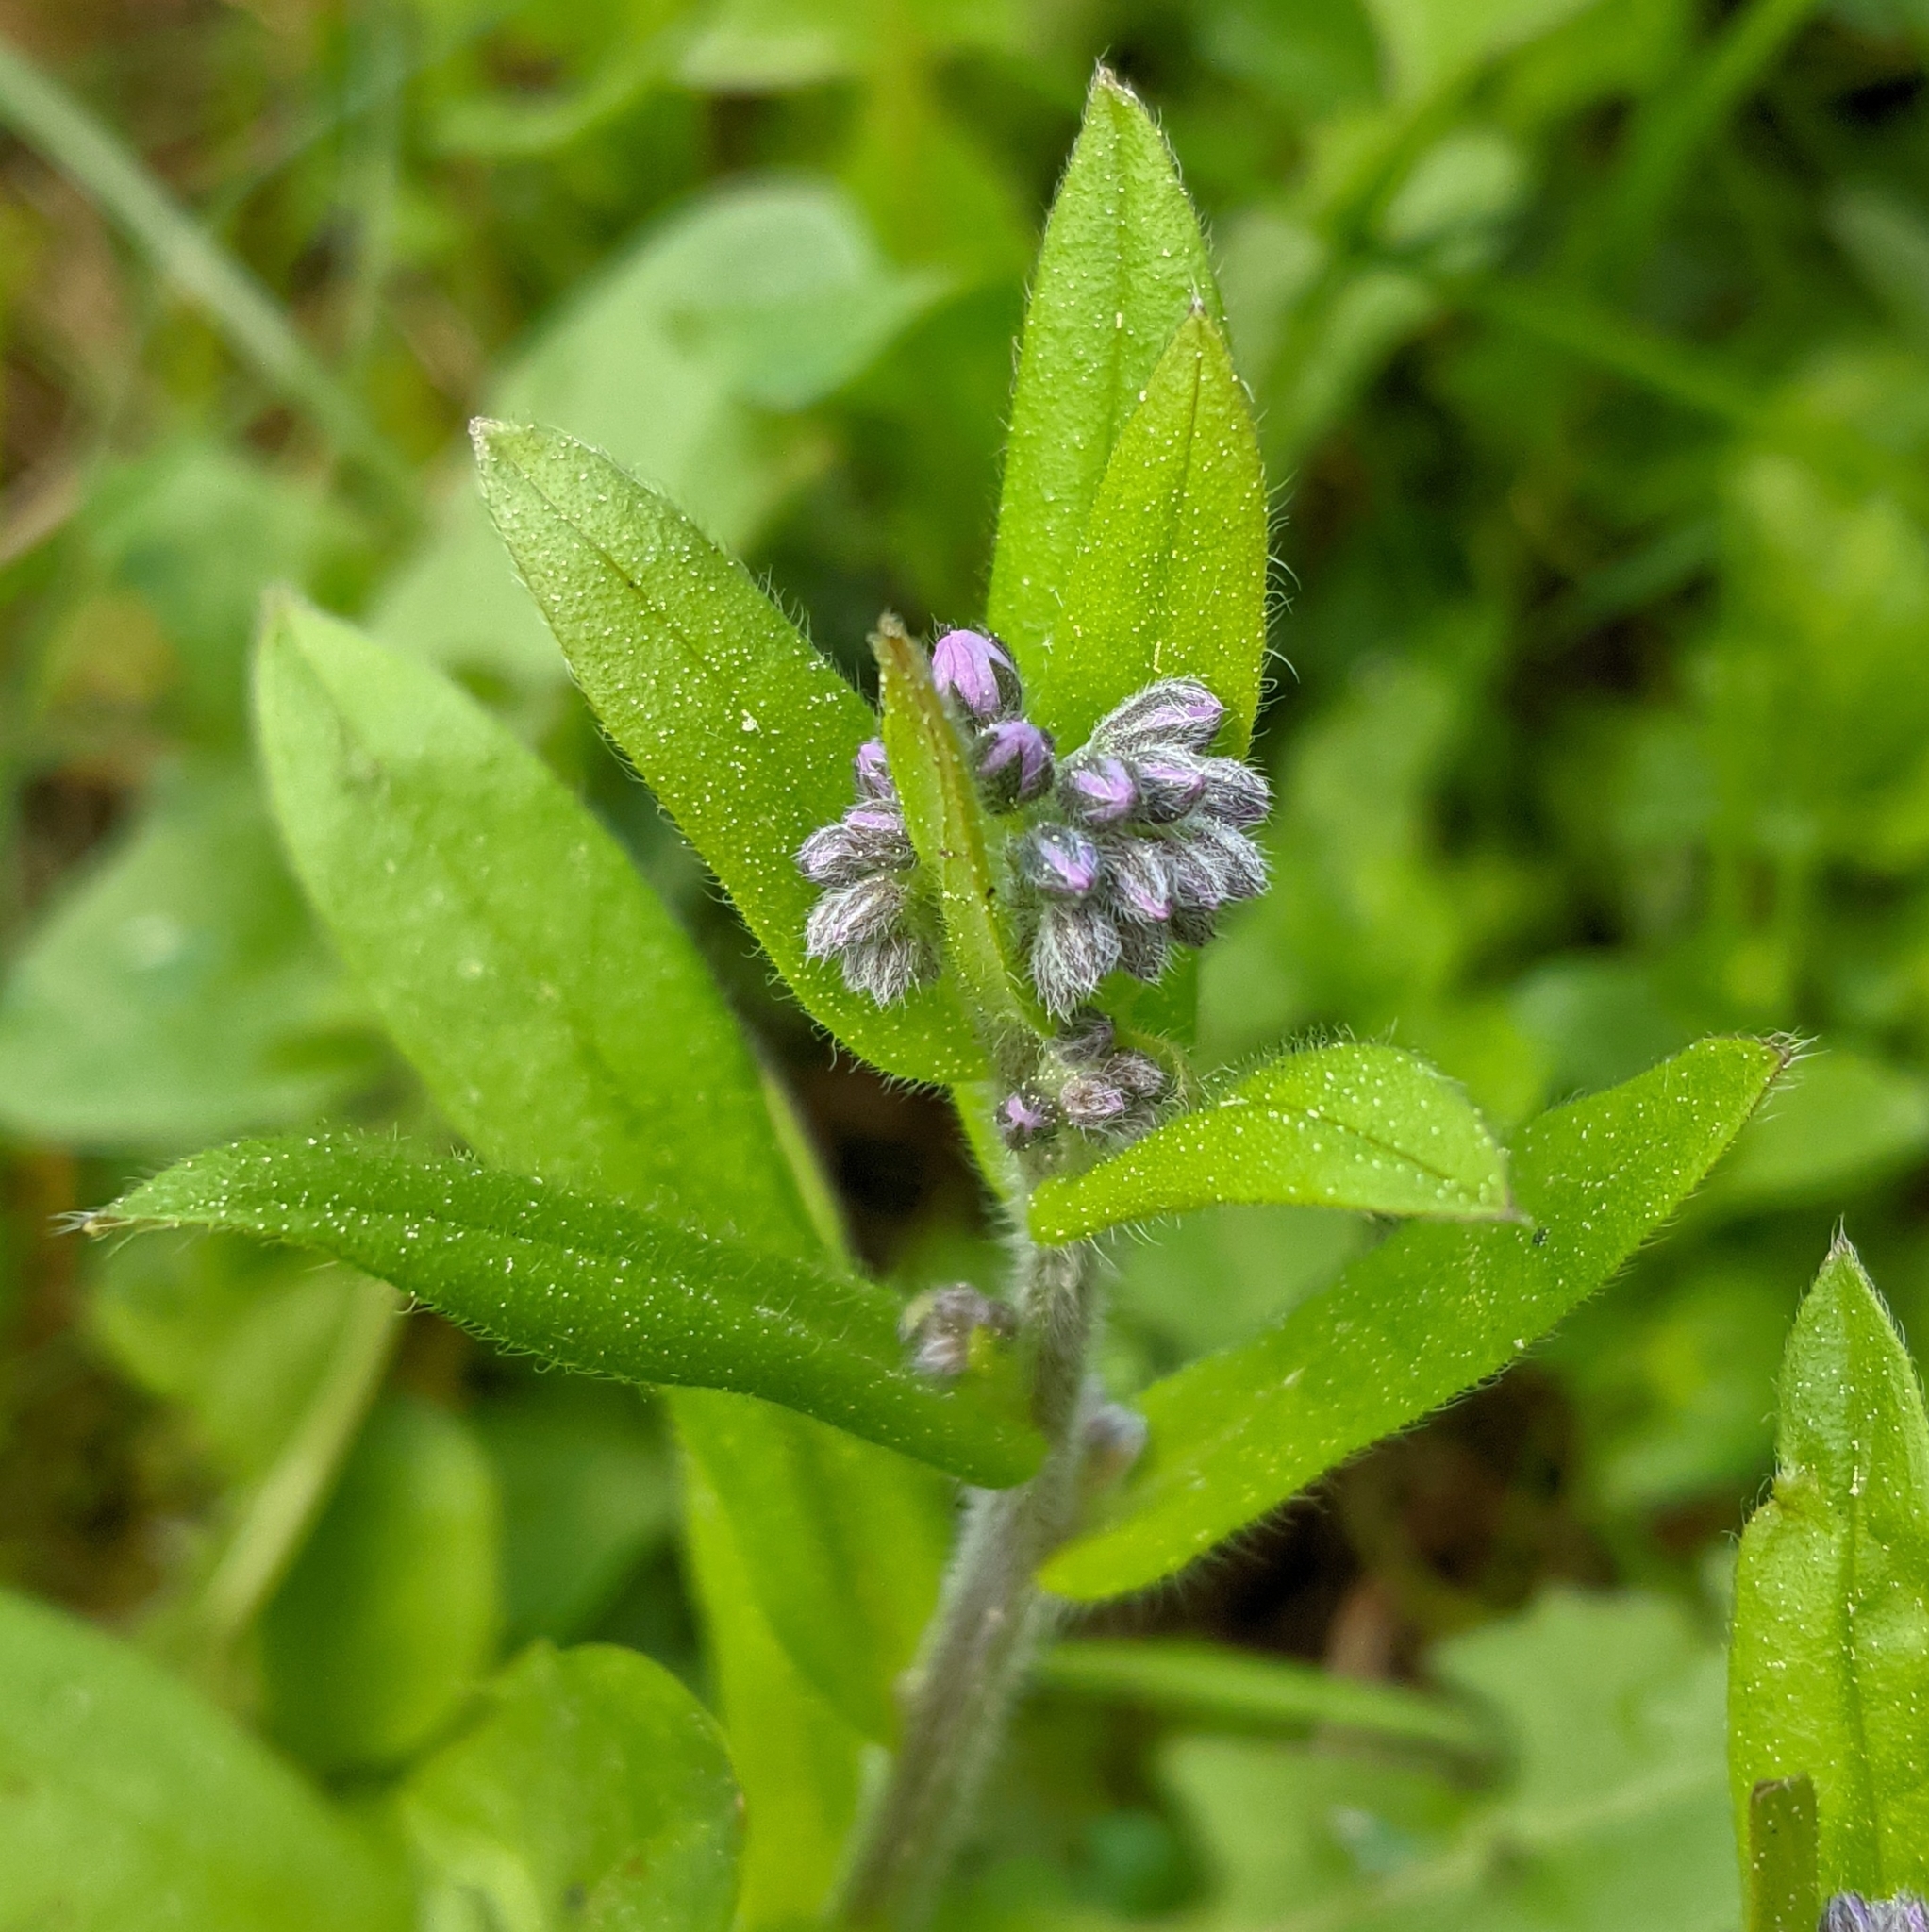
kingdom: Plantae
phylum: Tracheophyta
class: Magnoliopsida
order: Boraginales
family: Boraginaceae
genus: Myosotis
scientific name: Myosotis sylvatica
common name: Wood forget-me-not
